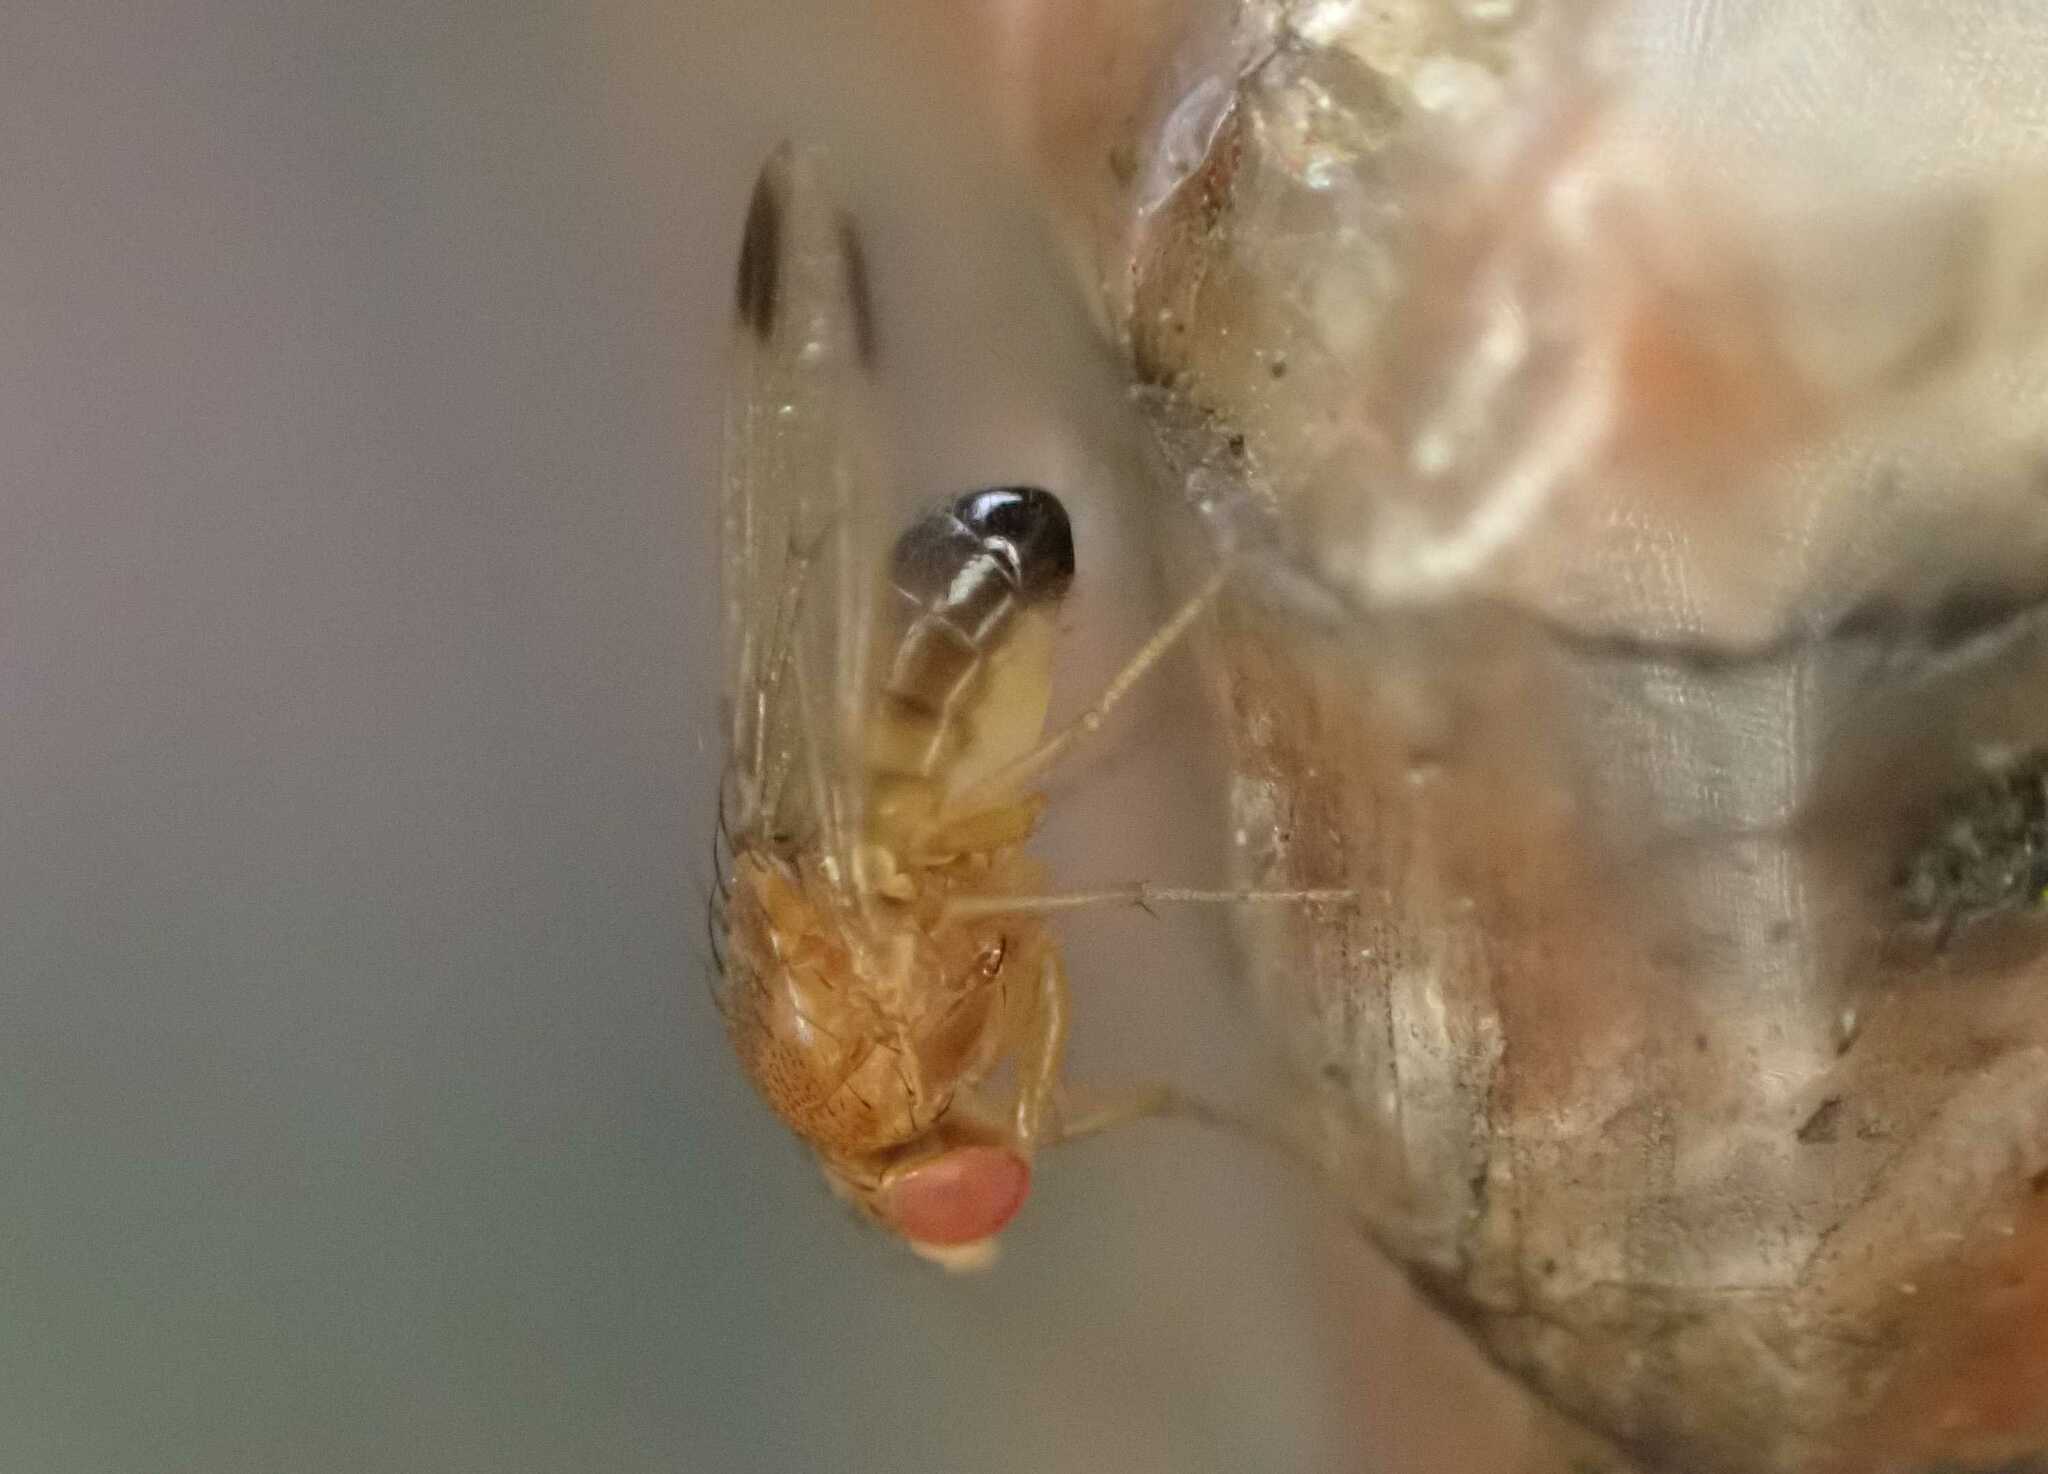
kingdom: Animalia
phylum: Arthropoda
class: Insecta
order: Diptera
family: Drosophilidae
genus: Drosophila
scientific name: Drosophila suzukii
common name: Spotted-wing drosophila
